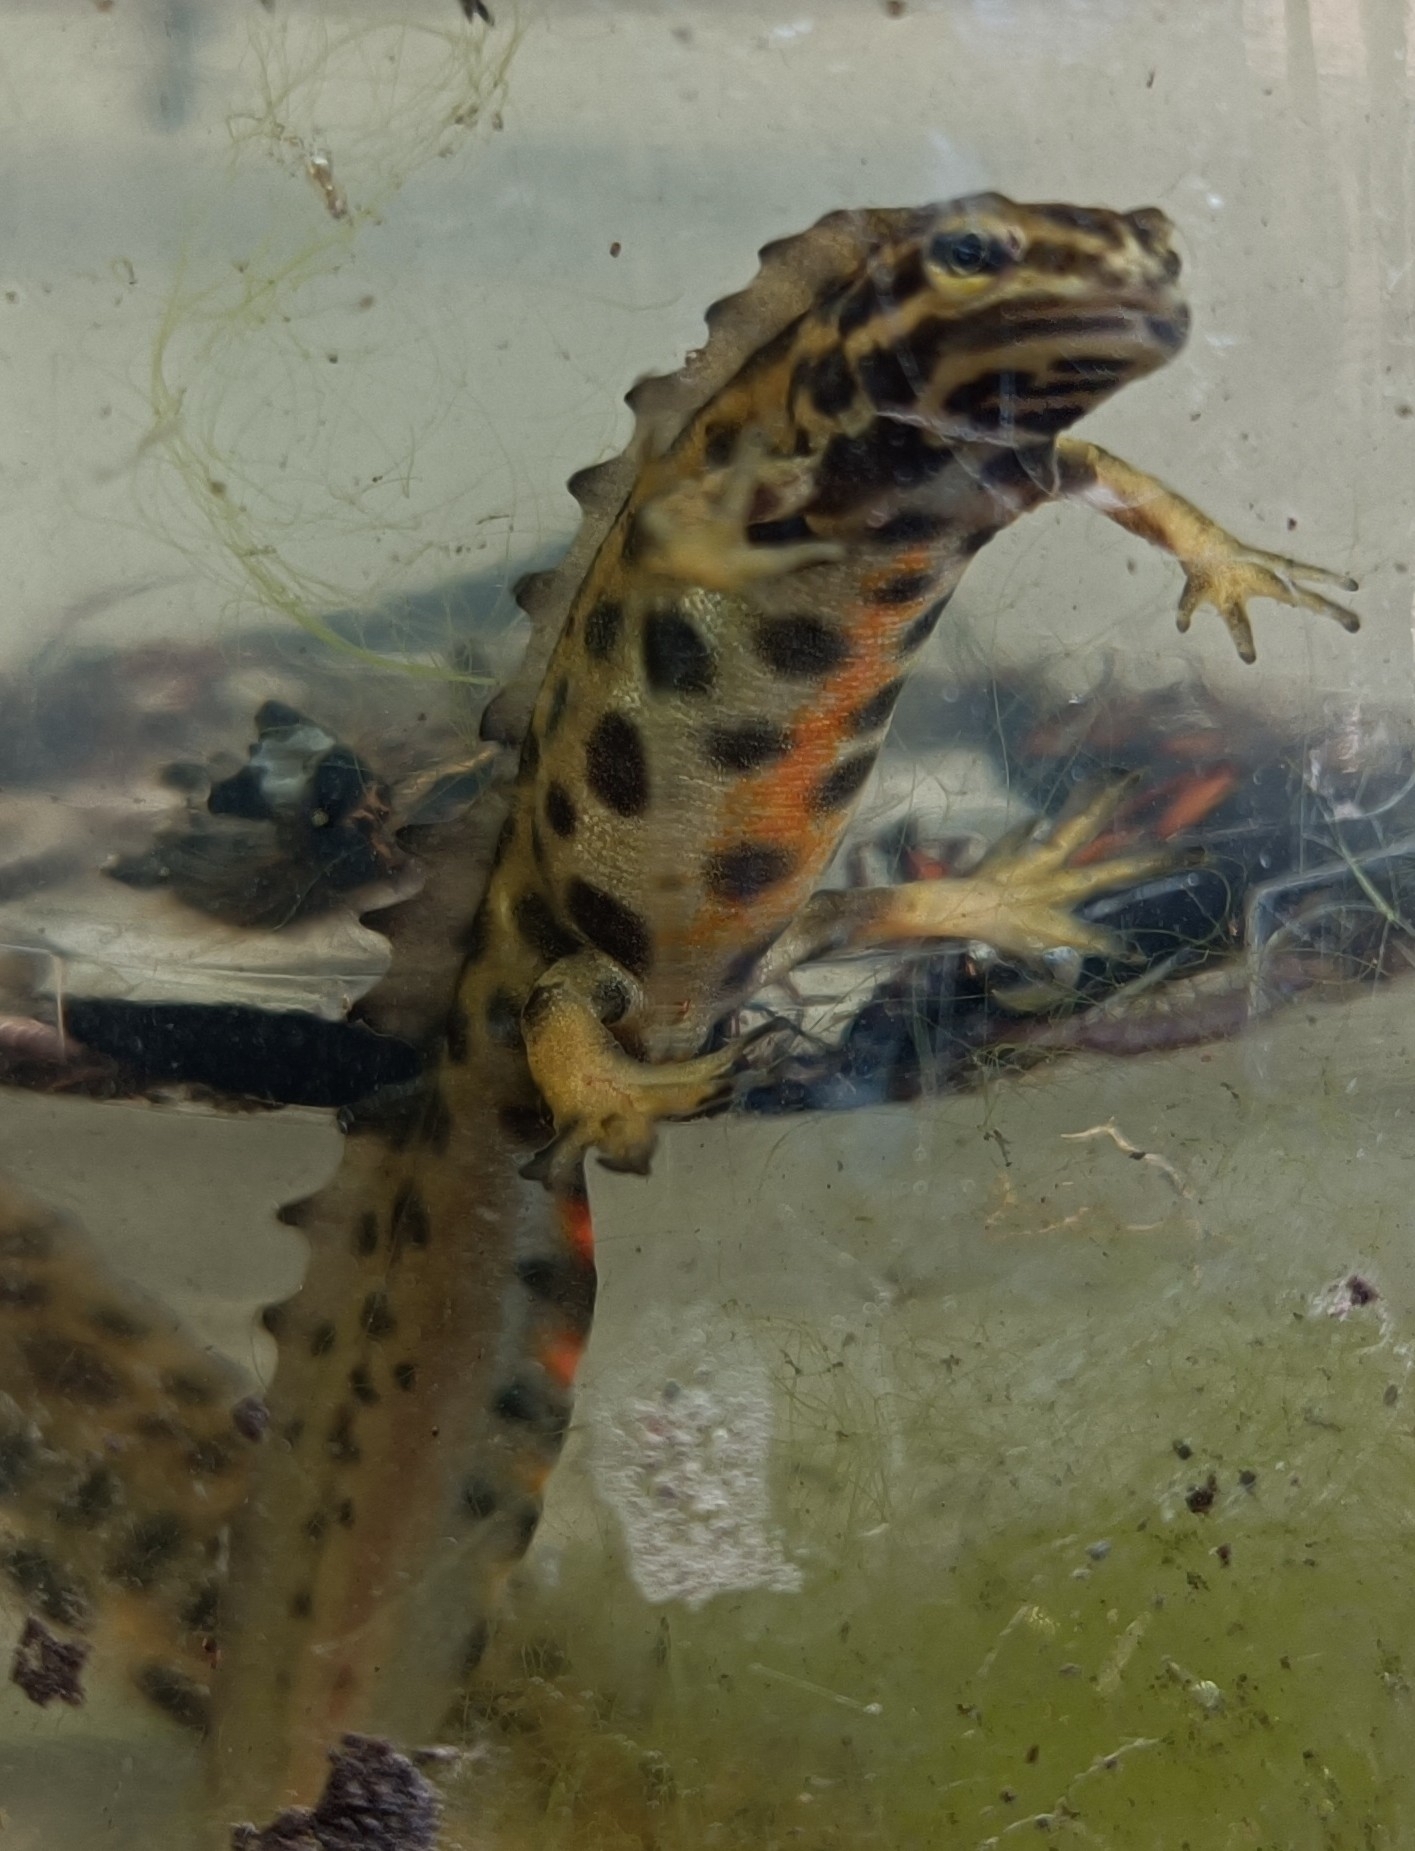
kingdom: Animalia
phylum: Chordata
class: Amphibia
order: Caudata
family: Salamandridae
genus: Lissotriton
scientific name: Lissotriton vulgaris
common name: Smooth newt
